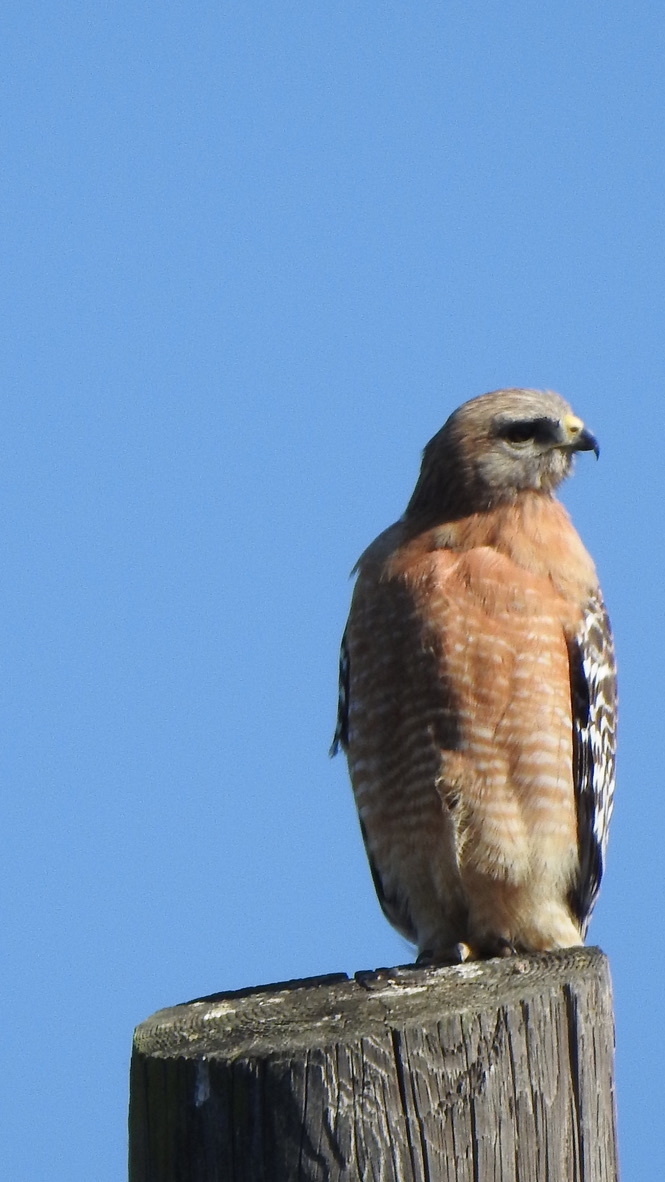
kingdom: Animalia
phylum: Chordata
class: Aves
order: Accipitriformes
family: Accipitridae
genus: Buteo
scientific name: Buteo lineatus
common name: Red-shouldered hawk
